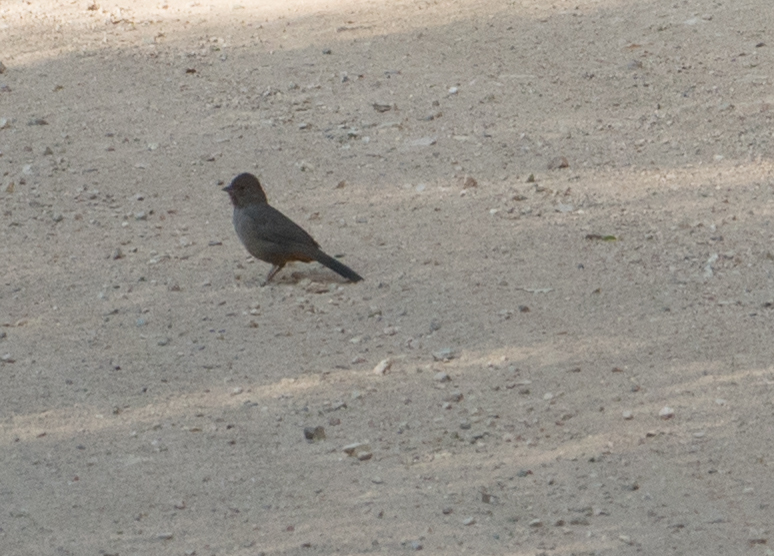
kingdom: Animalia
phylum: Chordata
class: Aves
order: Passeriformes
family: Passerellidae
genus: Melozone
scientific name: Melozone crissalis
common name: California towhee
